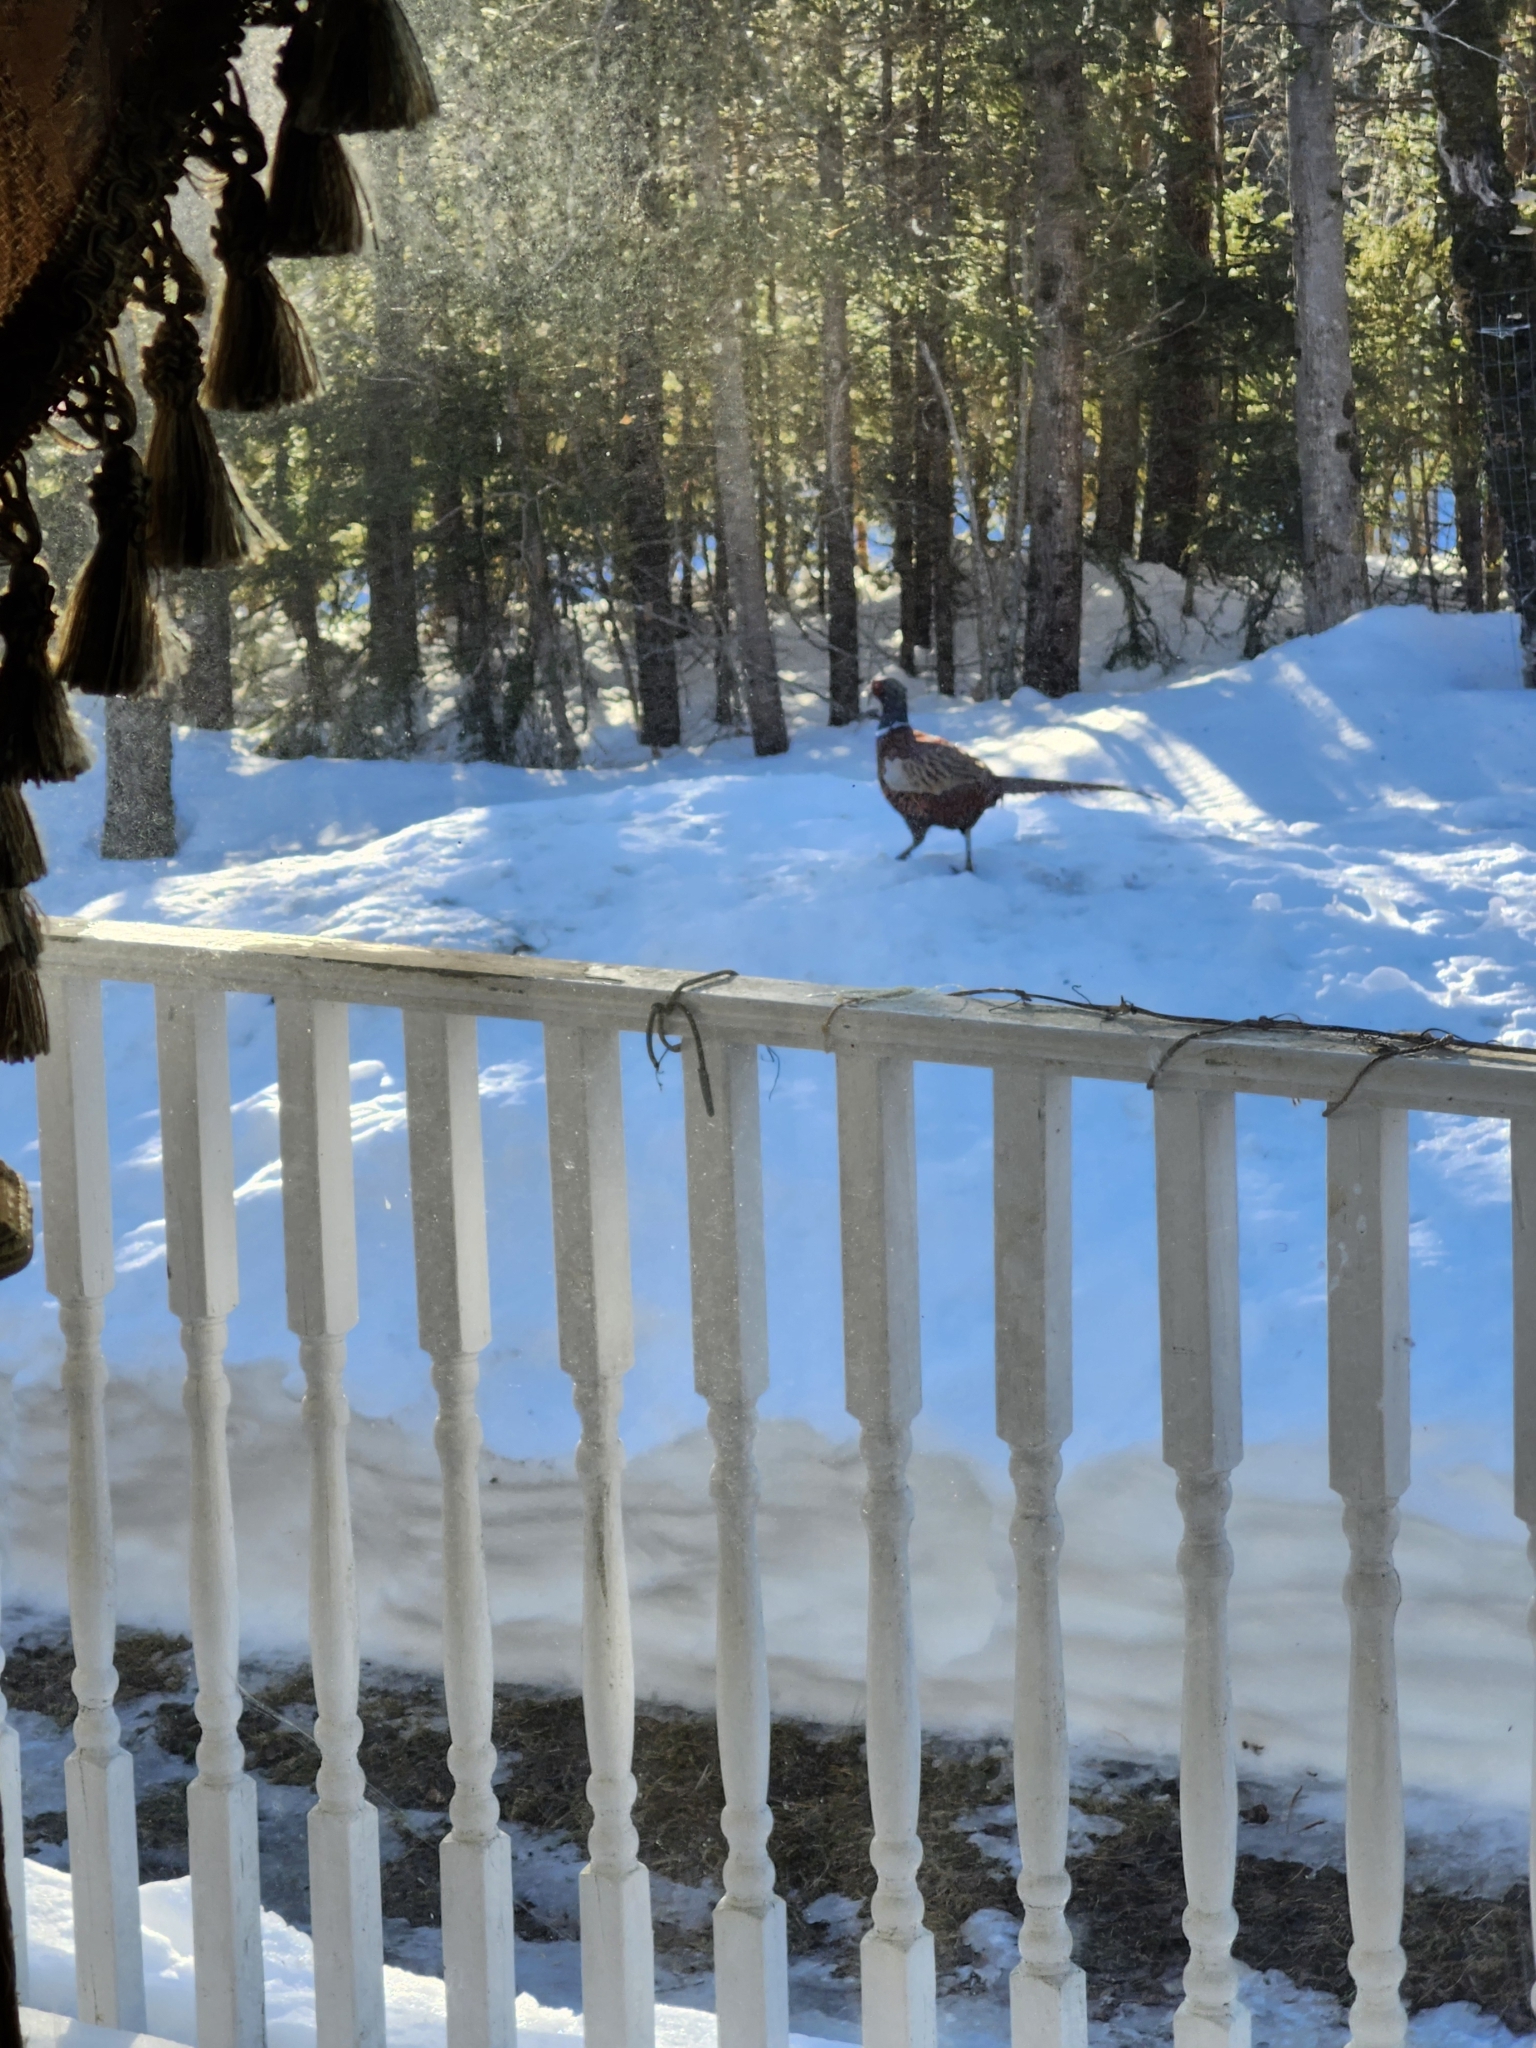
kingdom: Animalia
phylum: Chordata
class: Aves
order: Galliformes
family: Phasianidae
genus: Phasianus
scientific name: Phasianus colchicus
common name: Common pheasant
